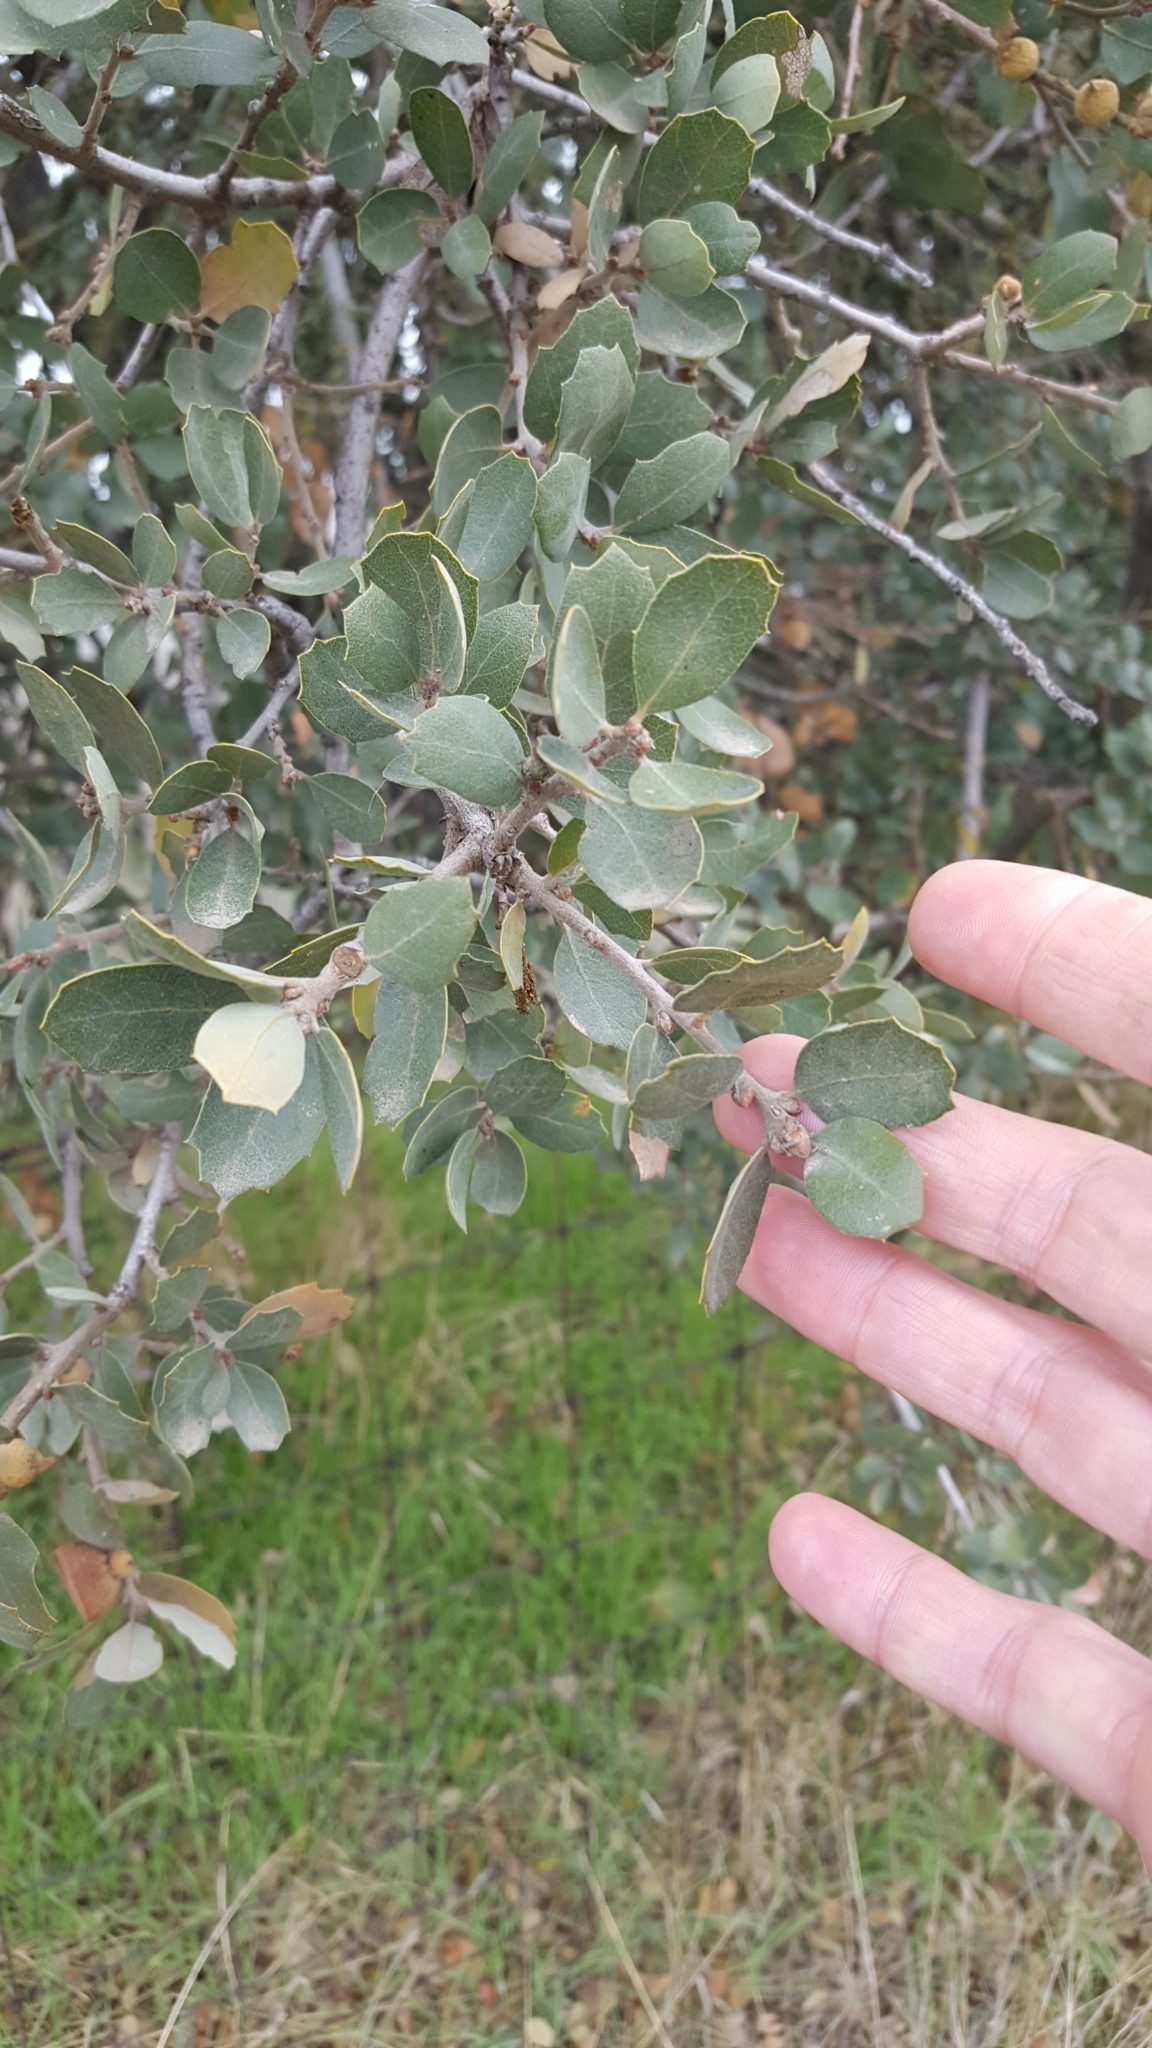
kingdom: Plantae
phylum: Tracheophyta
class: Magnoliopsida
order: Fagales
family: Fagaceae
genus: Quercus
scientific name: Quercus douglasii
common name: Blue oak
